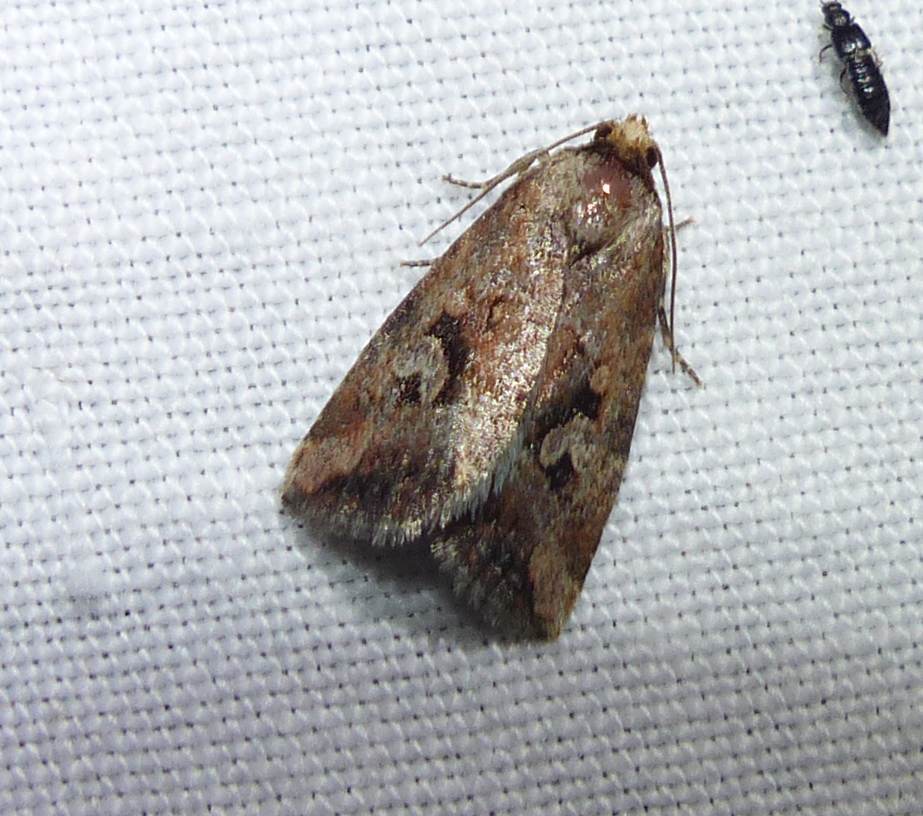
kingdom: Animalia
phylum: Arthropoda
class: Insecta
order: Lepidoptera
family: Noctuidae
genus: Elaphria
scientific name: Elaphria alapallida
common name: Pale-winged midget
